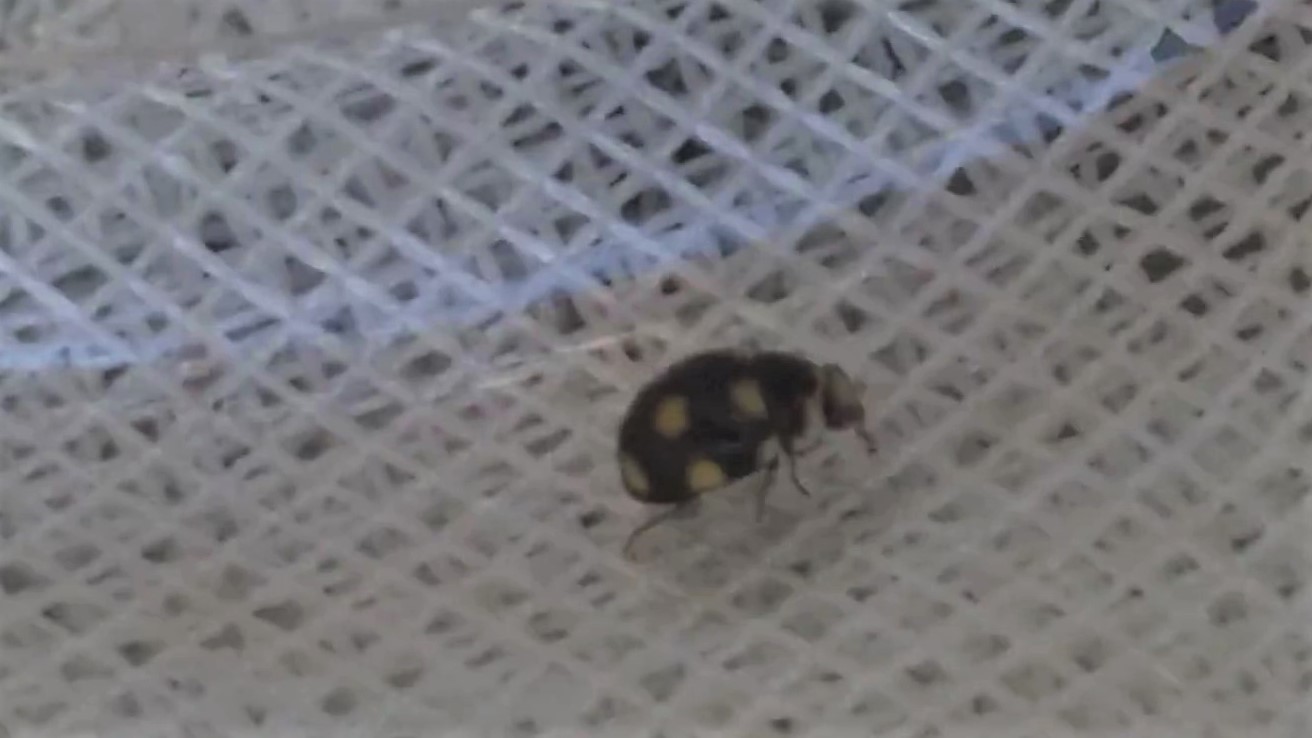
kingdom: Animalia
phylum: Arthropoda
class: Insecta
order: Coleoptera
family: Coccinellidae
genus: Brachiacantha
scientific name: Brachiacantha ursina
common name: Ursine spurleg lady beetle
